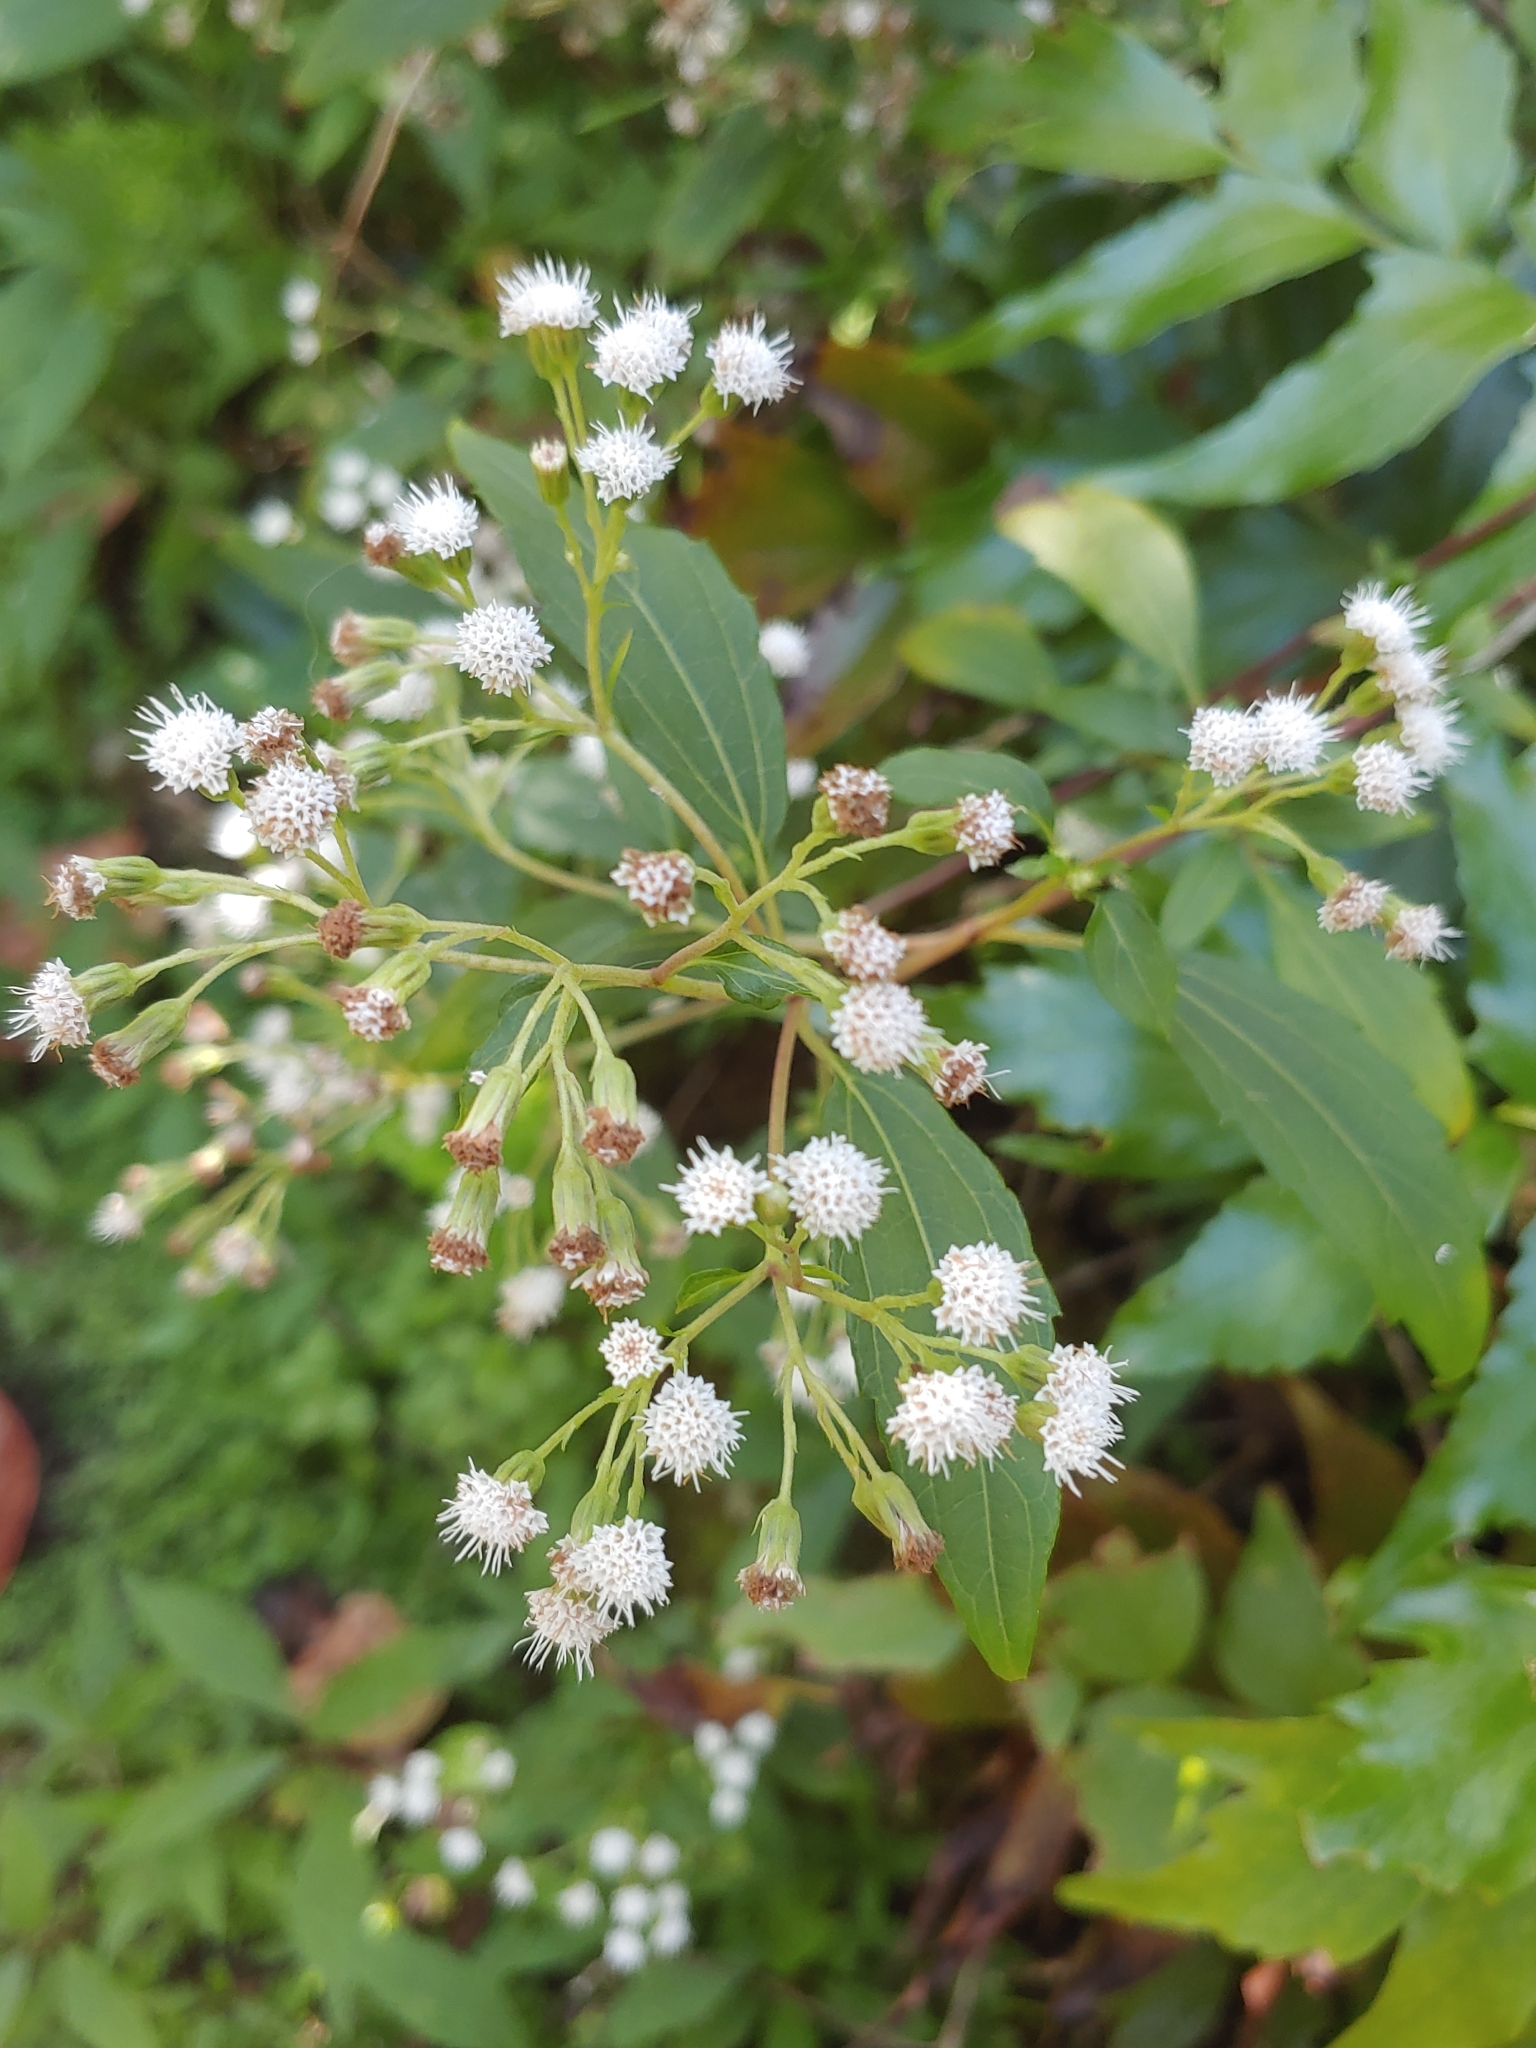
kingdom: Plantae
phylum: Tracheophyta
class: Magnoliopsida
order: Asterales
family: Asteraceae
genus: Ageratina
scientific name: Ageratina riparia
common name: Creeping croftonweed
